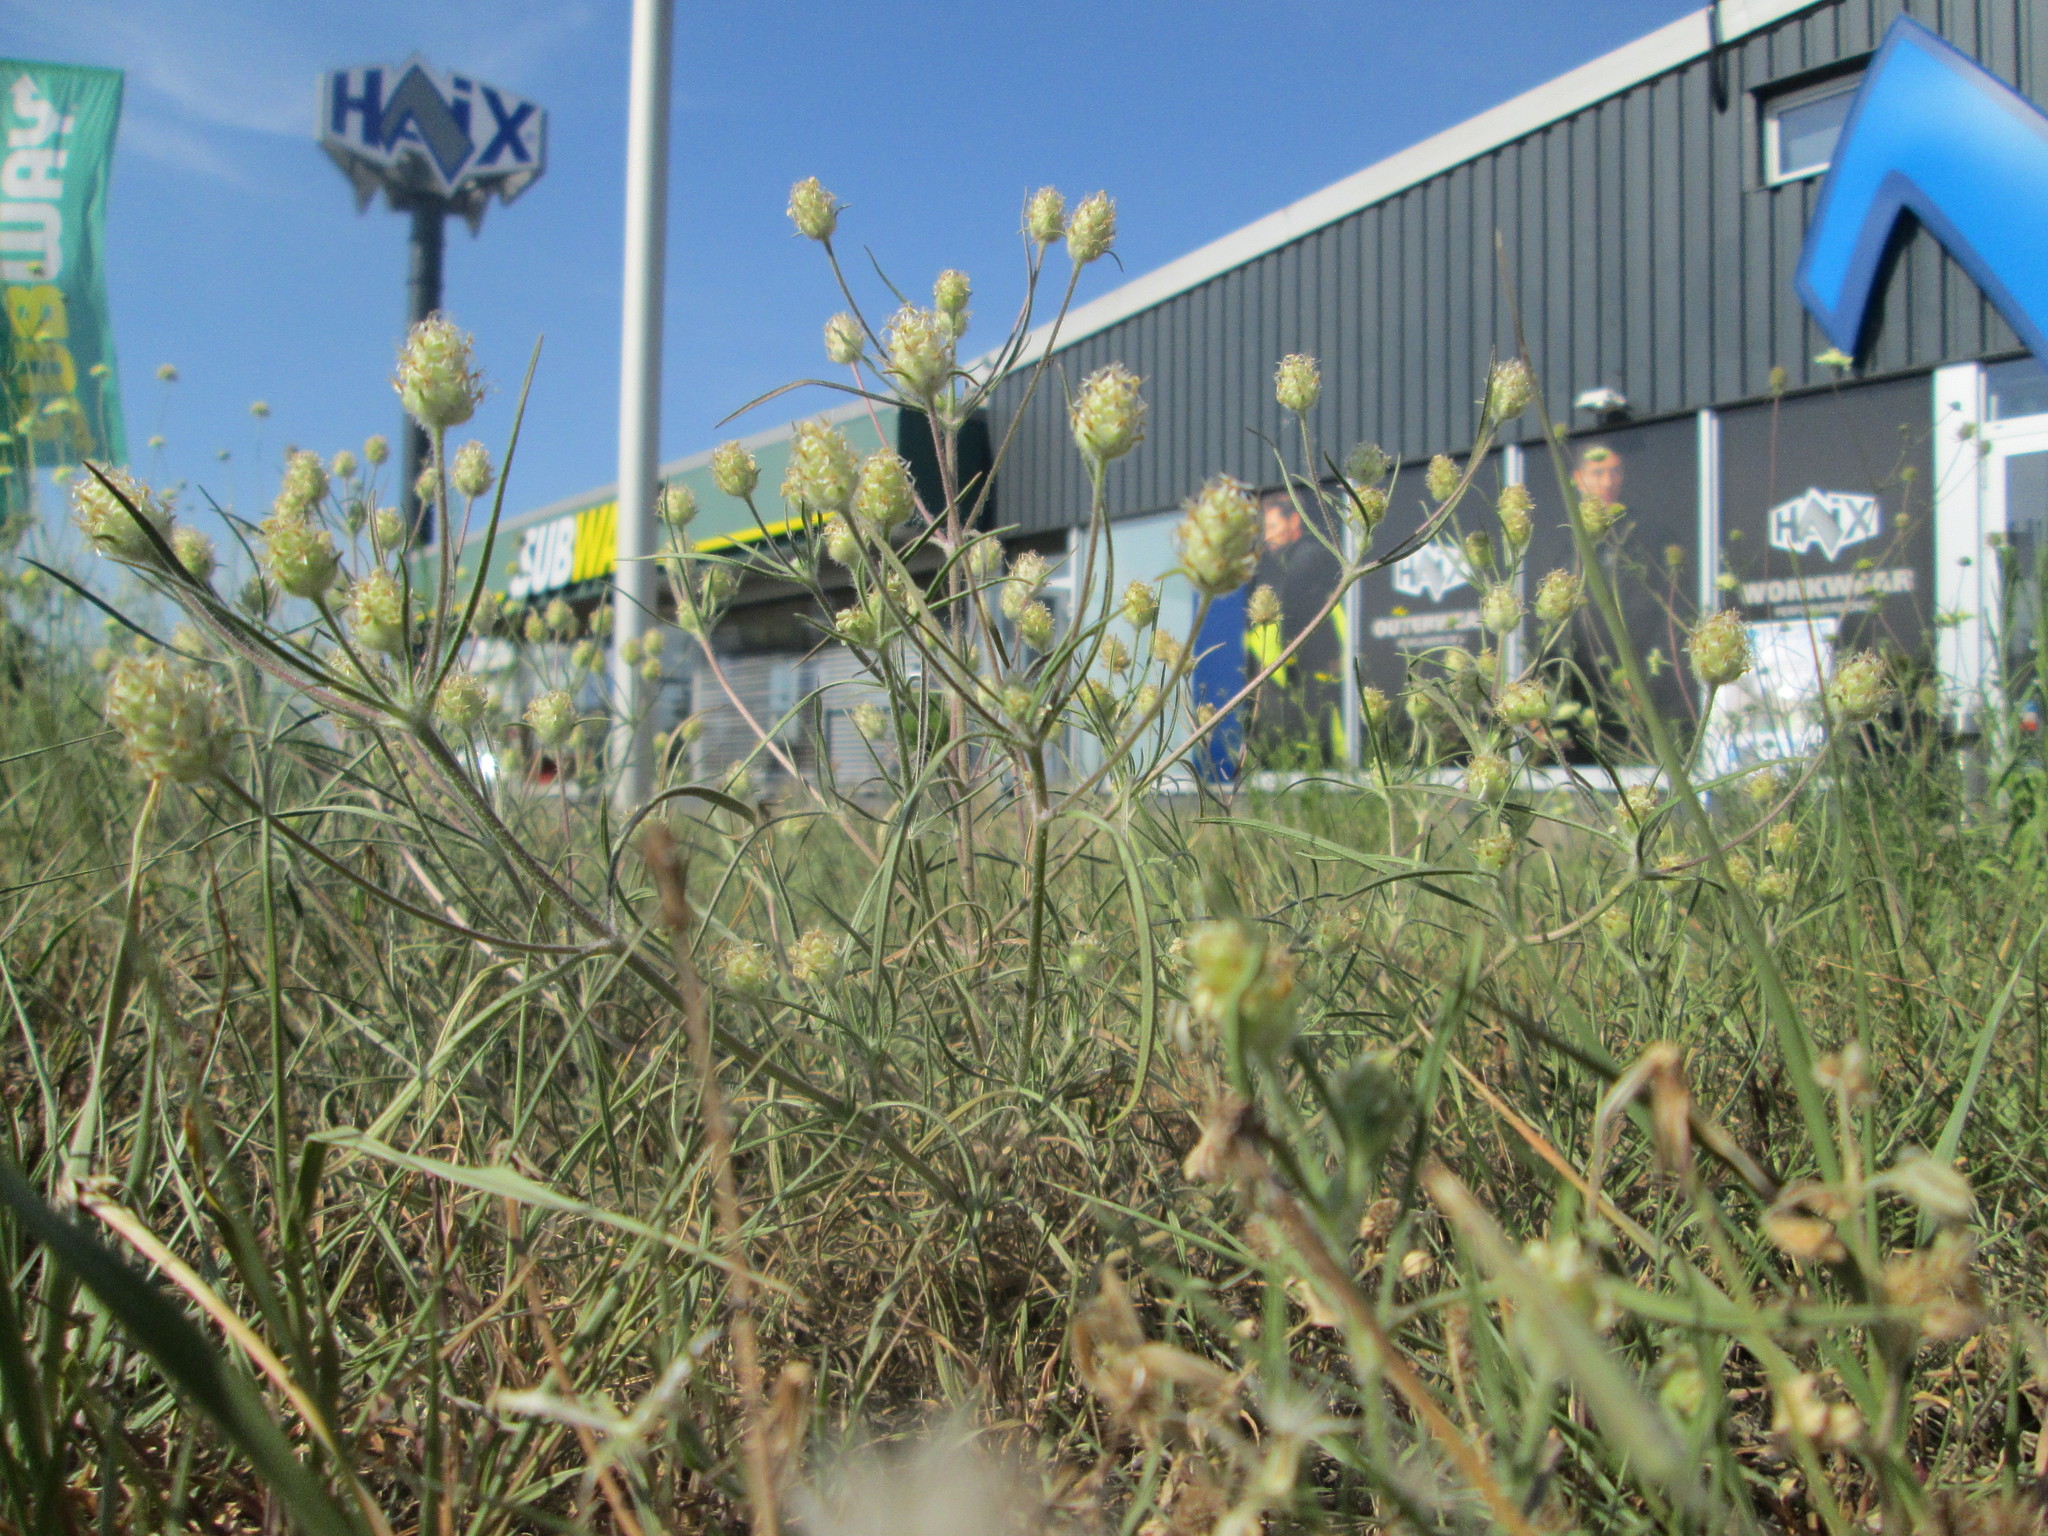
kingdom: Plantae
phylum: Tracheophyta
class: Magnoliopsida
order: Lamiales
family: Plantaginaceae
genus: Plantago
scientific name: Plantago arenaria
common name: Branched plantain
